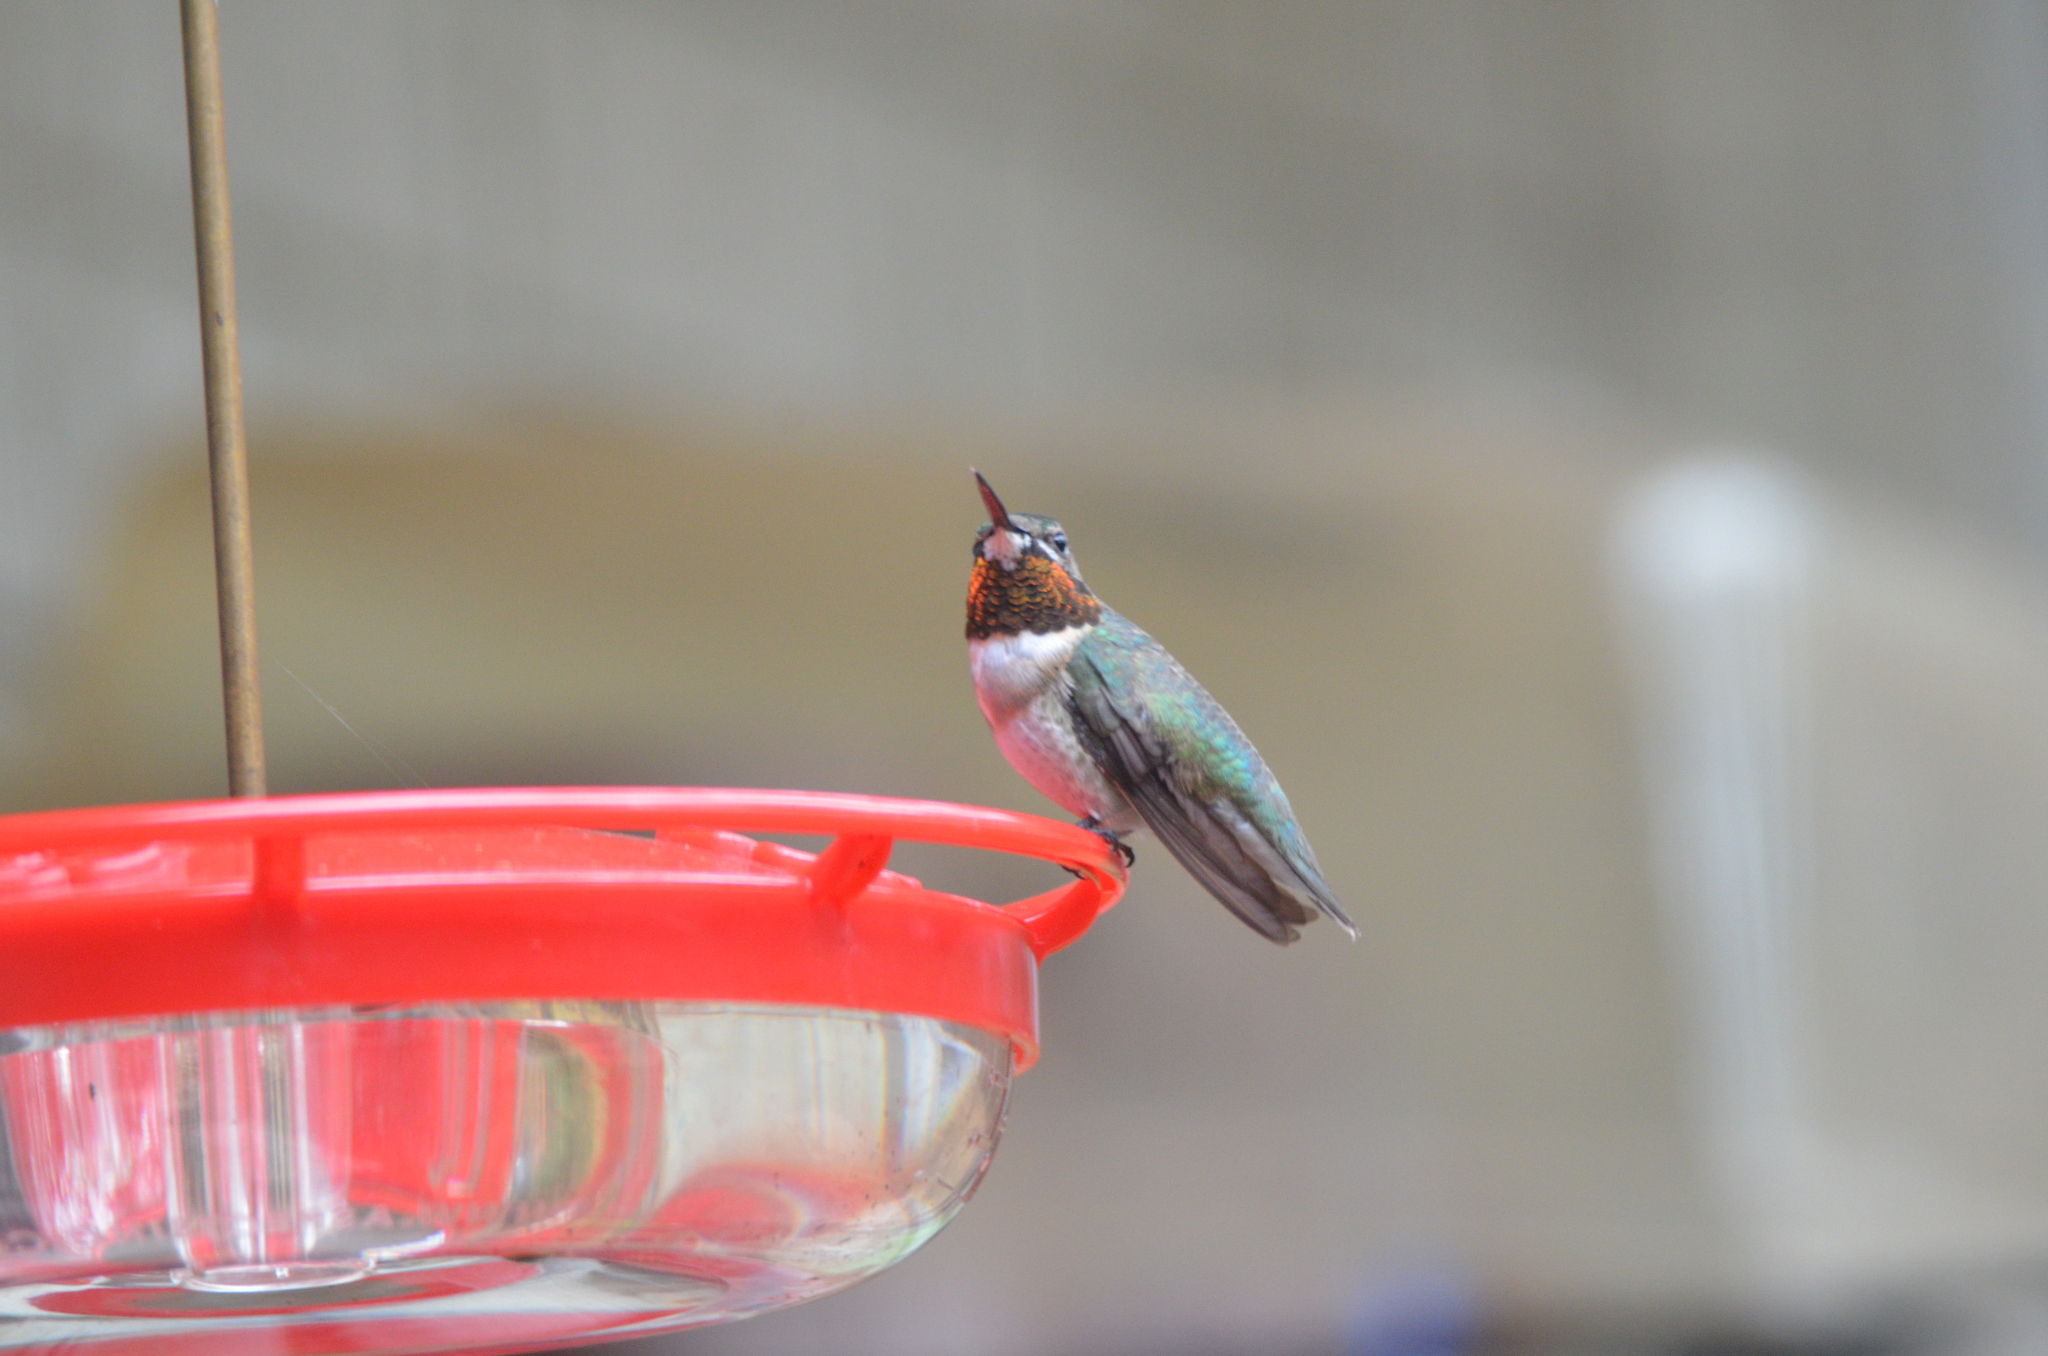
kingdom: Animalia
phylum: Chordata
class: Aves
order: Apodiformes
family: Trochilidae
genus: Archilochus
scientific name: Archilochus colubris
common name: Ruby-throated hummingbird
